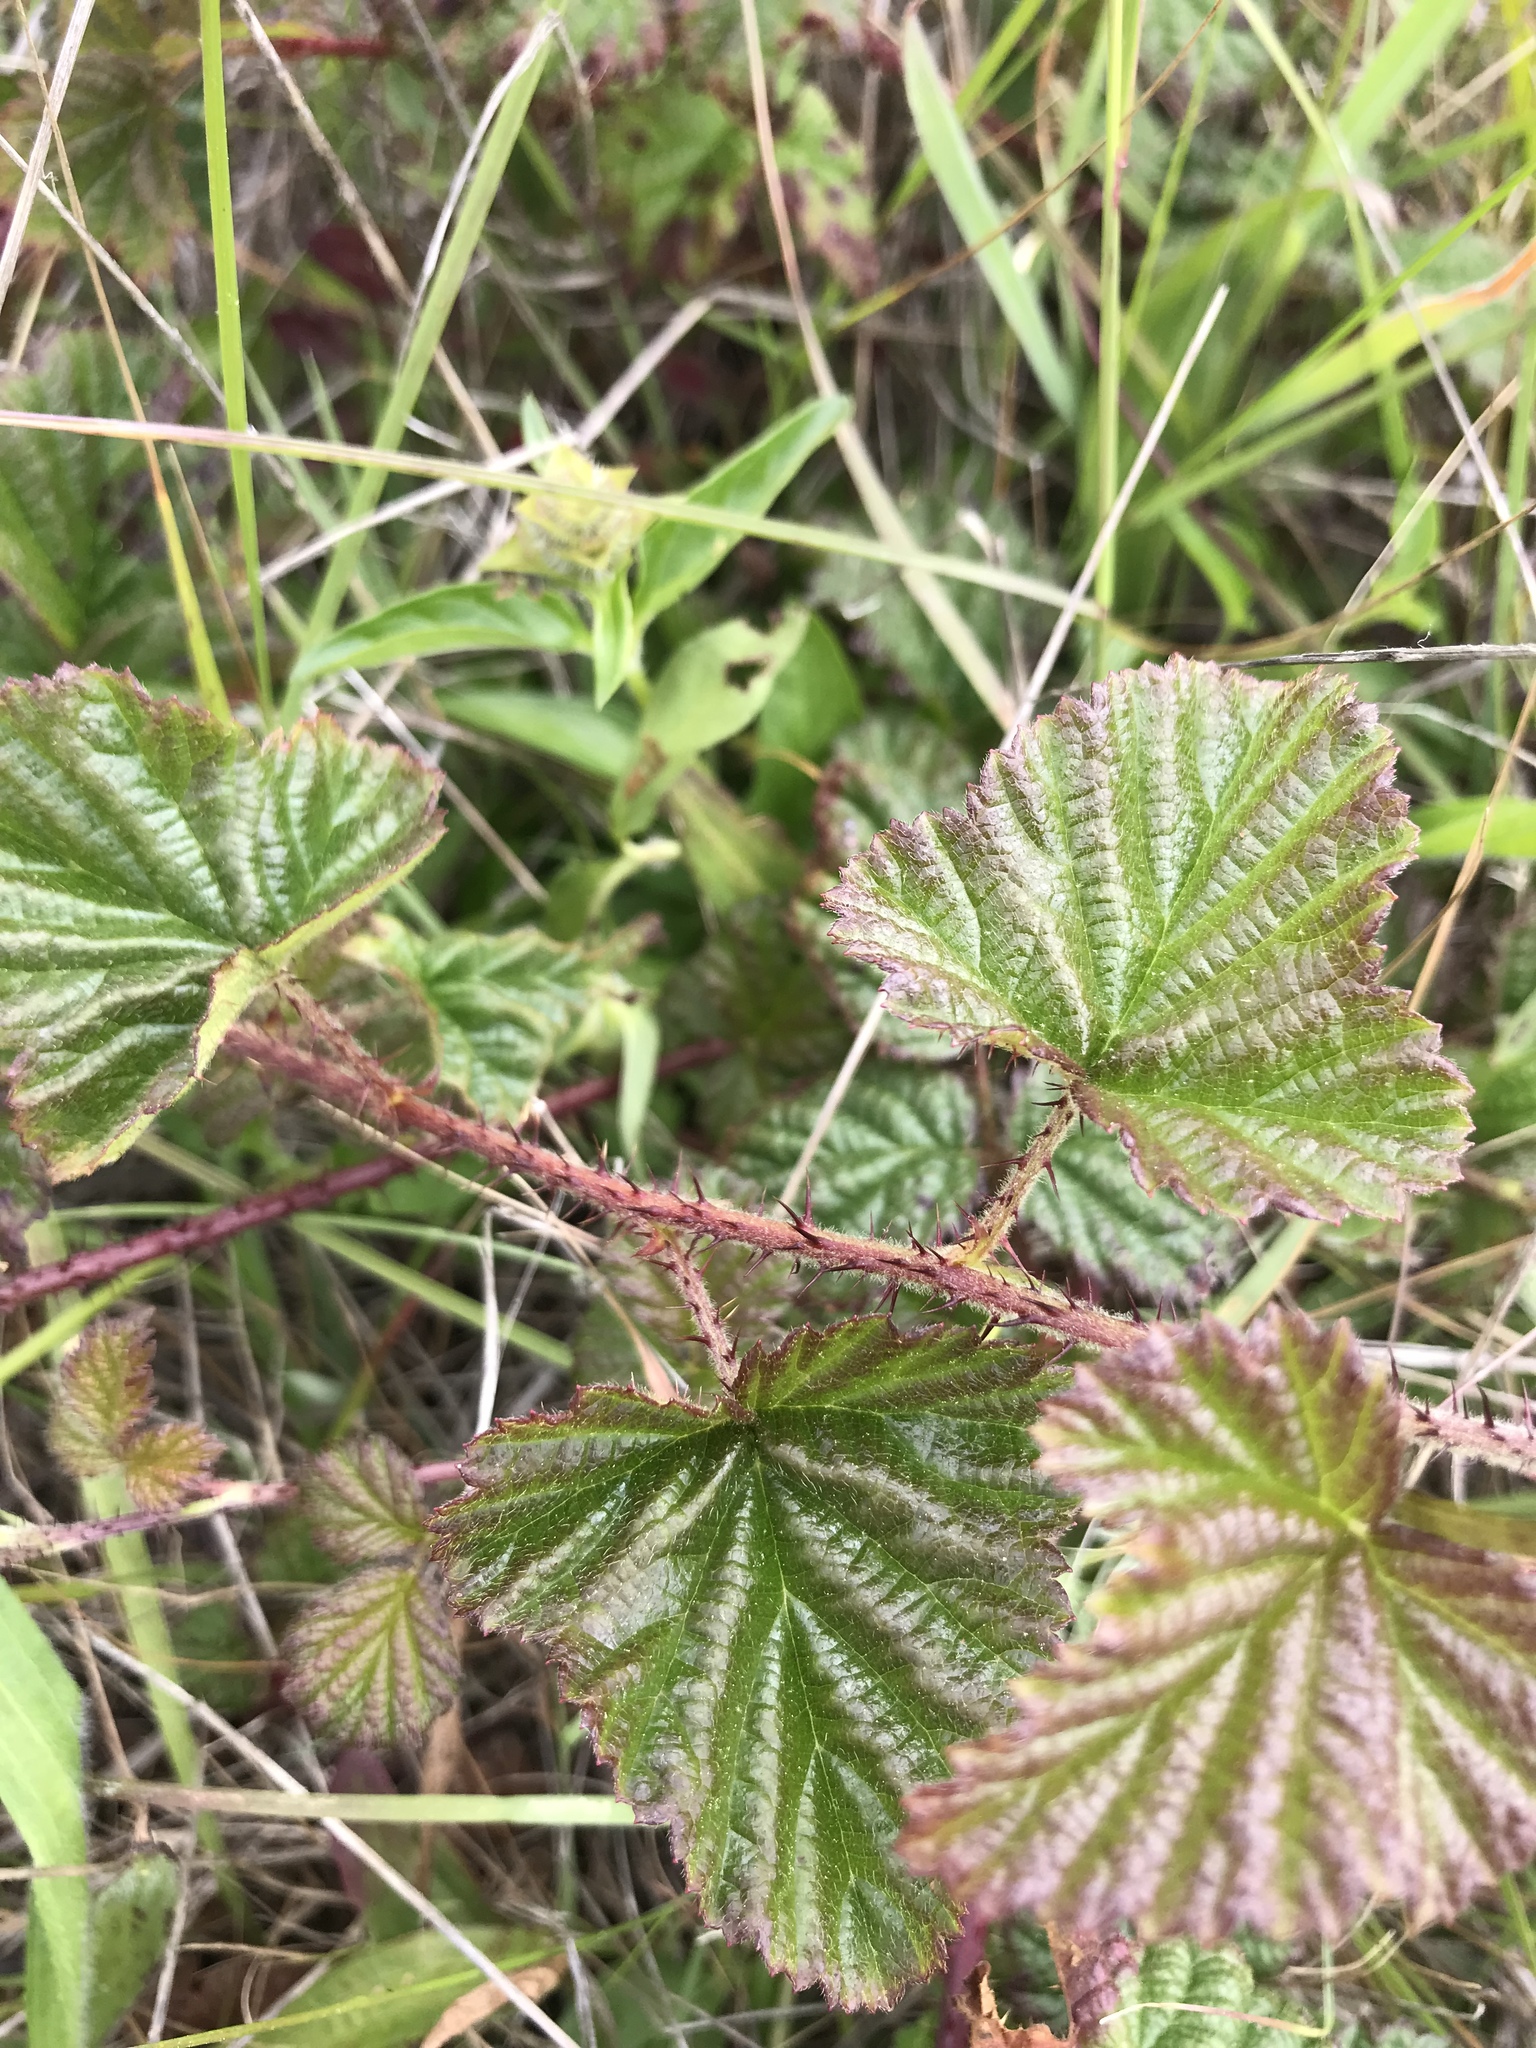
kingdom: Plantae
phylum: Tracheophyta
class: Magnoliopsida
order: Rosales
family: Rosaceae
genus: Rubus
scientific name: Rubus ursinus
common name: Pacific blackberry
